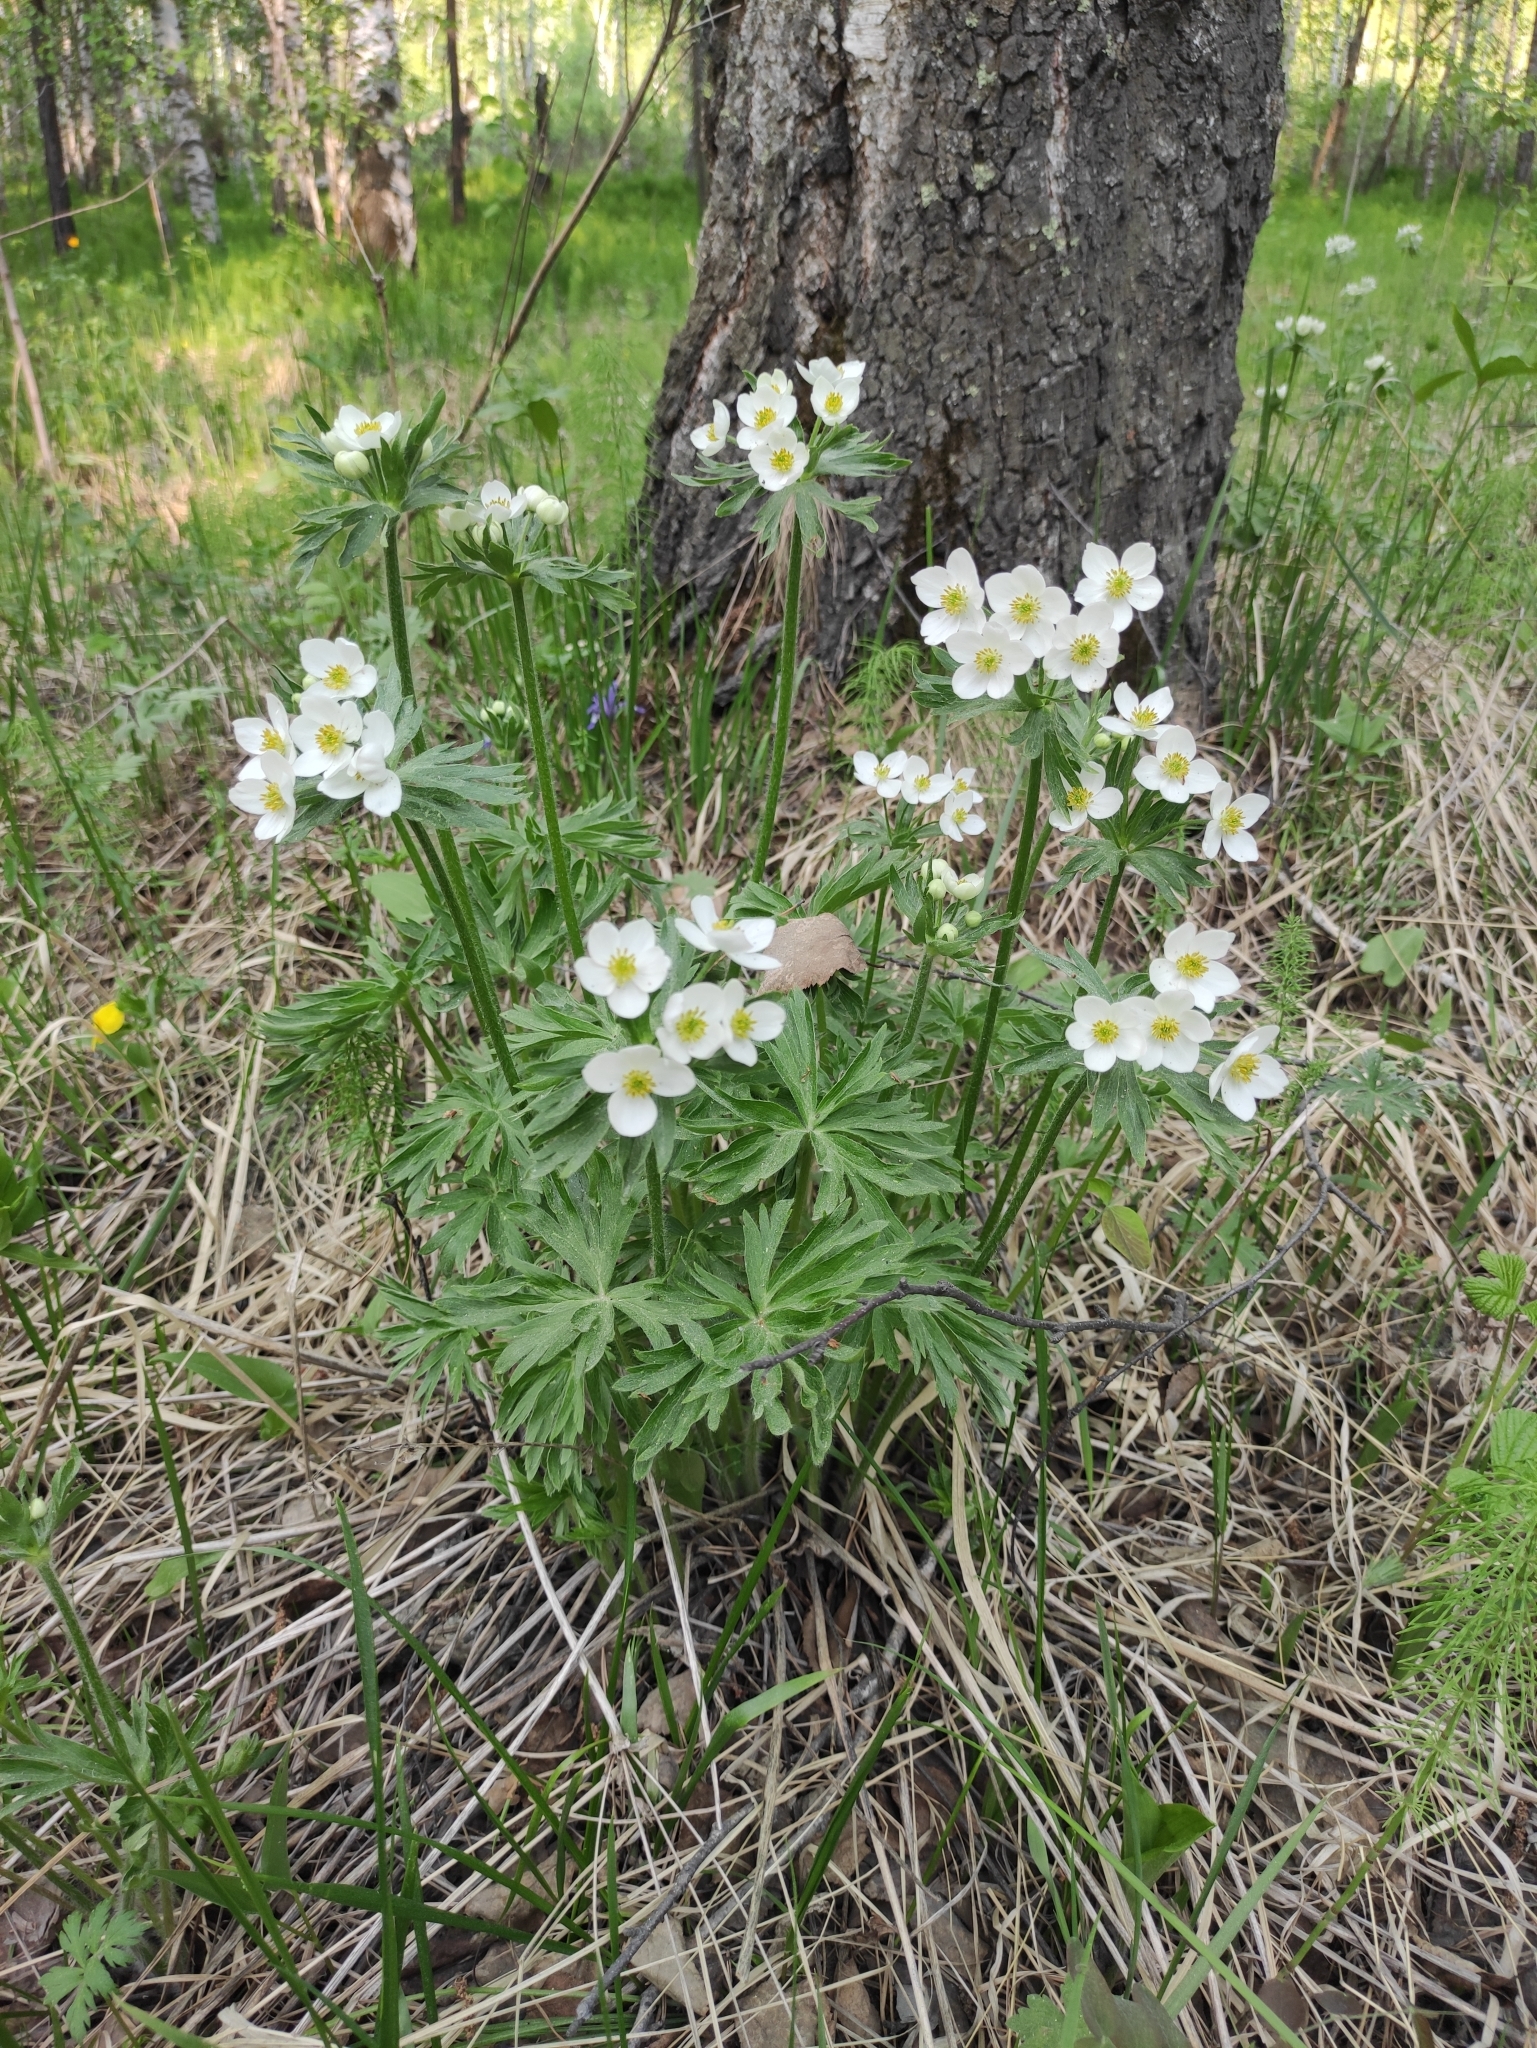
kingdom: Plantae
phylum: Tracheophyta
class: Magnoliopsida
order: Ranunculales
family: Ranunculaceae
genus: Anemonastrum
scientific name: Anemonastrum narcissiflorum
